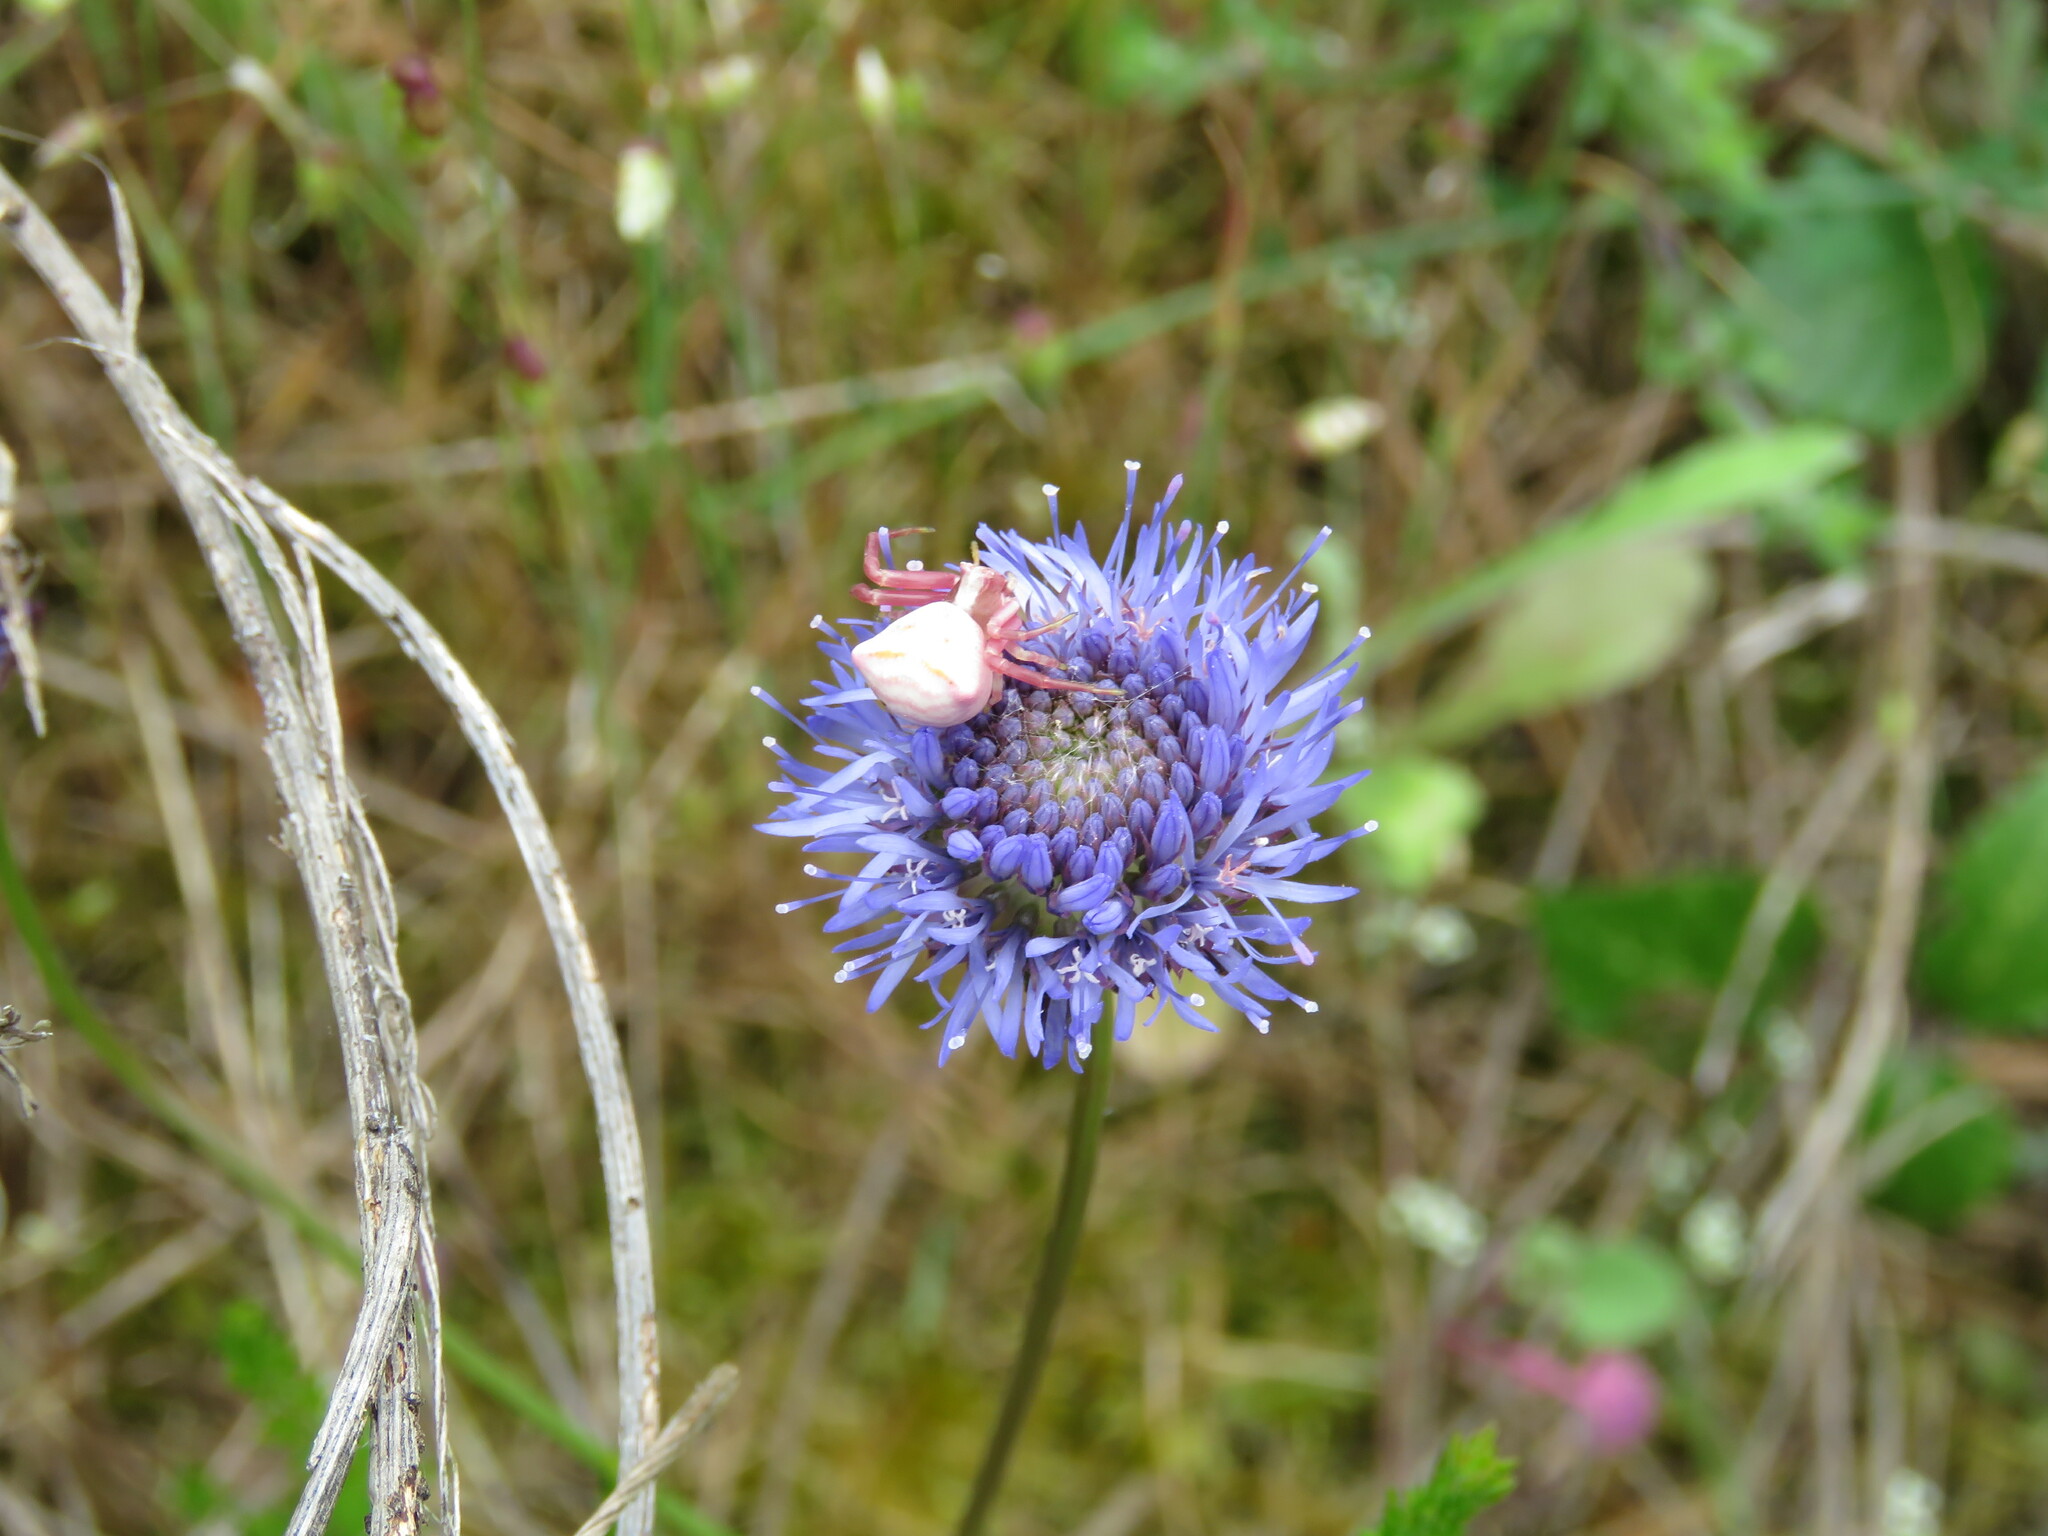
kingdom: Animalia
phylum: Arthropoda
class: Arachnida
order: Araneae
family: Thomisidae
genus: Thomisus
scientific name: Thomisus onustus
